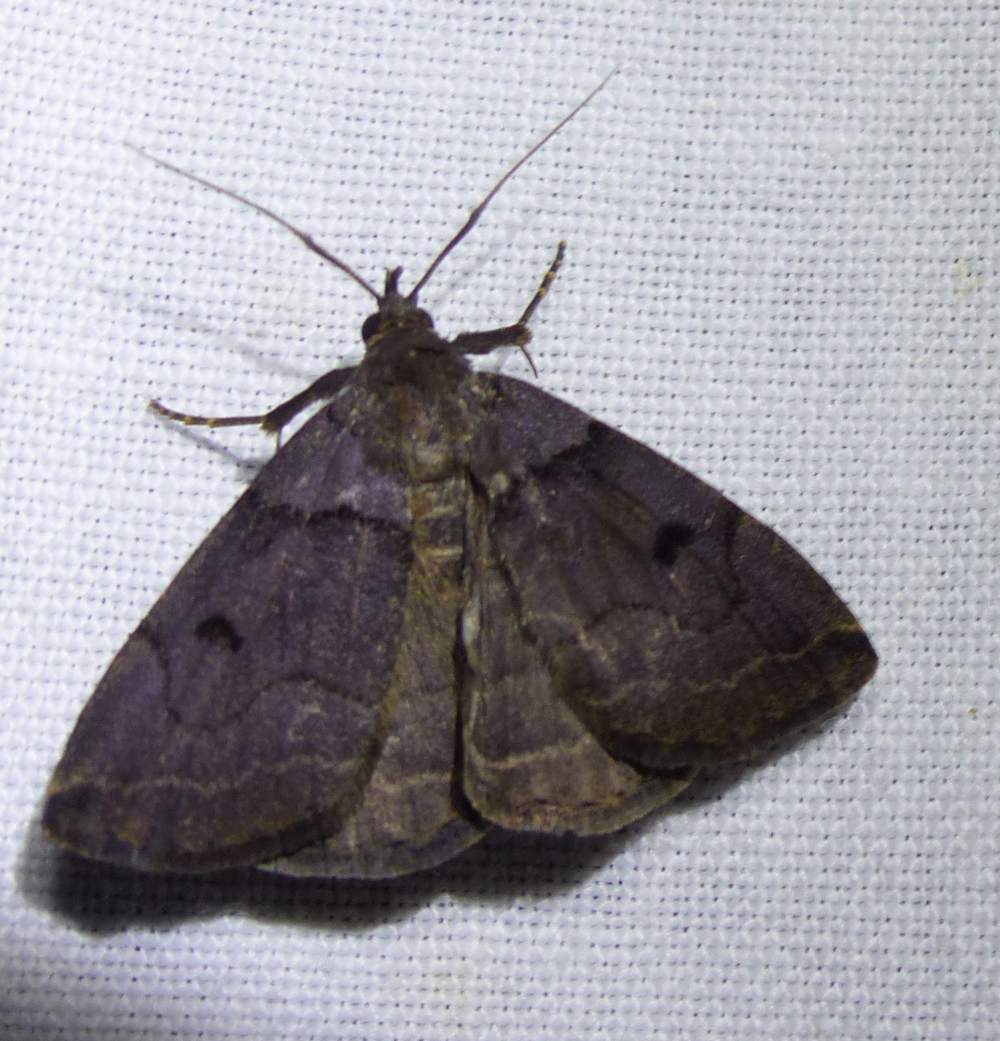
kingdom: Animalia
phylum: Arthropoda
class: Insecta
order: Lepidoptera
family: Erebidae
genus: Zanclognatha
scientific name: Zanclognatha laevigata
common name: Variable fan-foot
